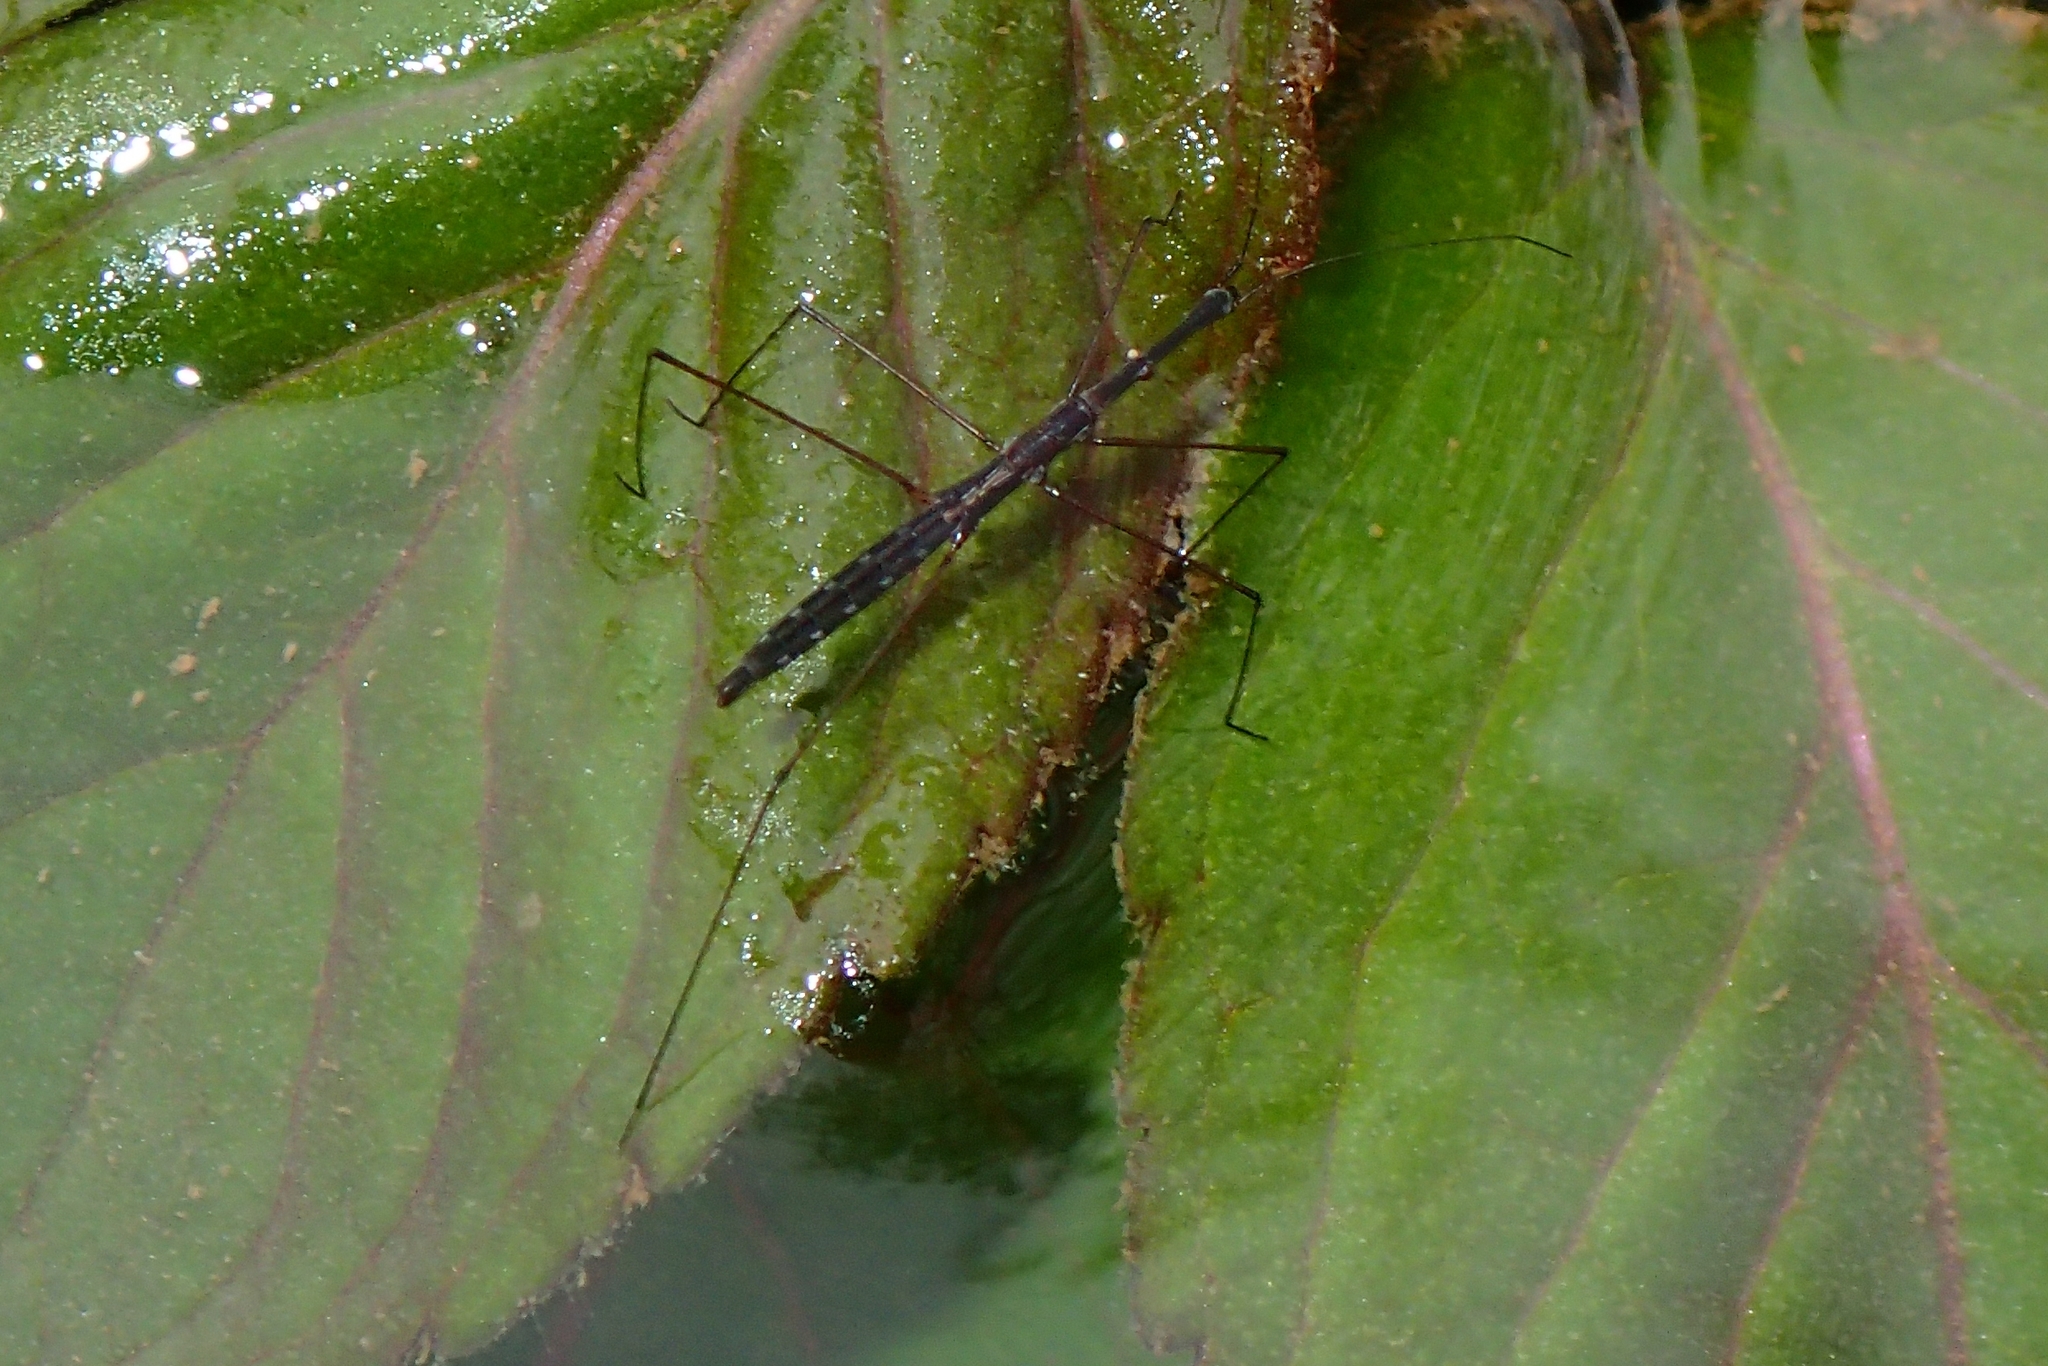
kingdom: Animalia
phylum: Arthropoda
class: Insecta
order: Hemiptera
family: Hydrometridae
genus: Hydrometra
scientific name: Hydrometra stagnorum
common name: Water measurer
